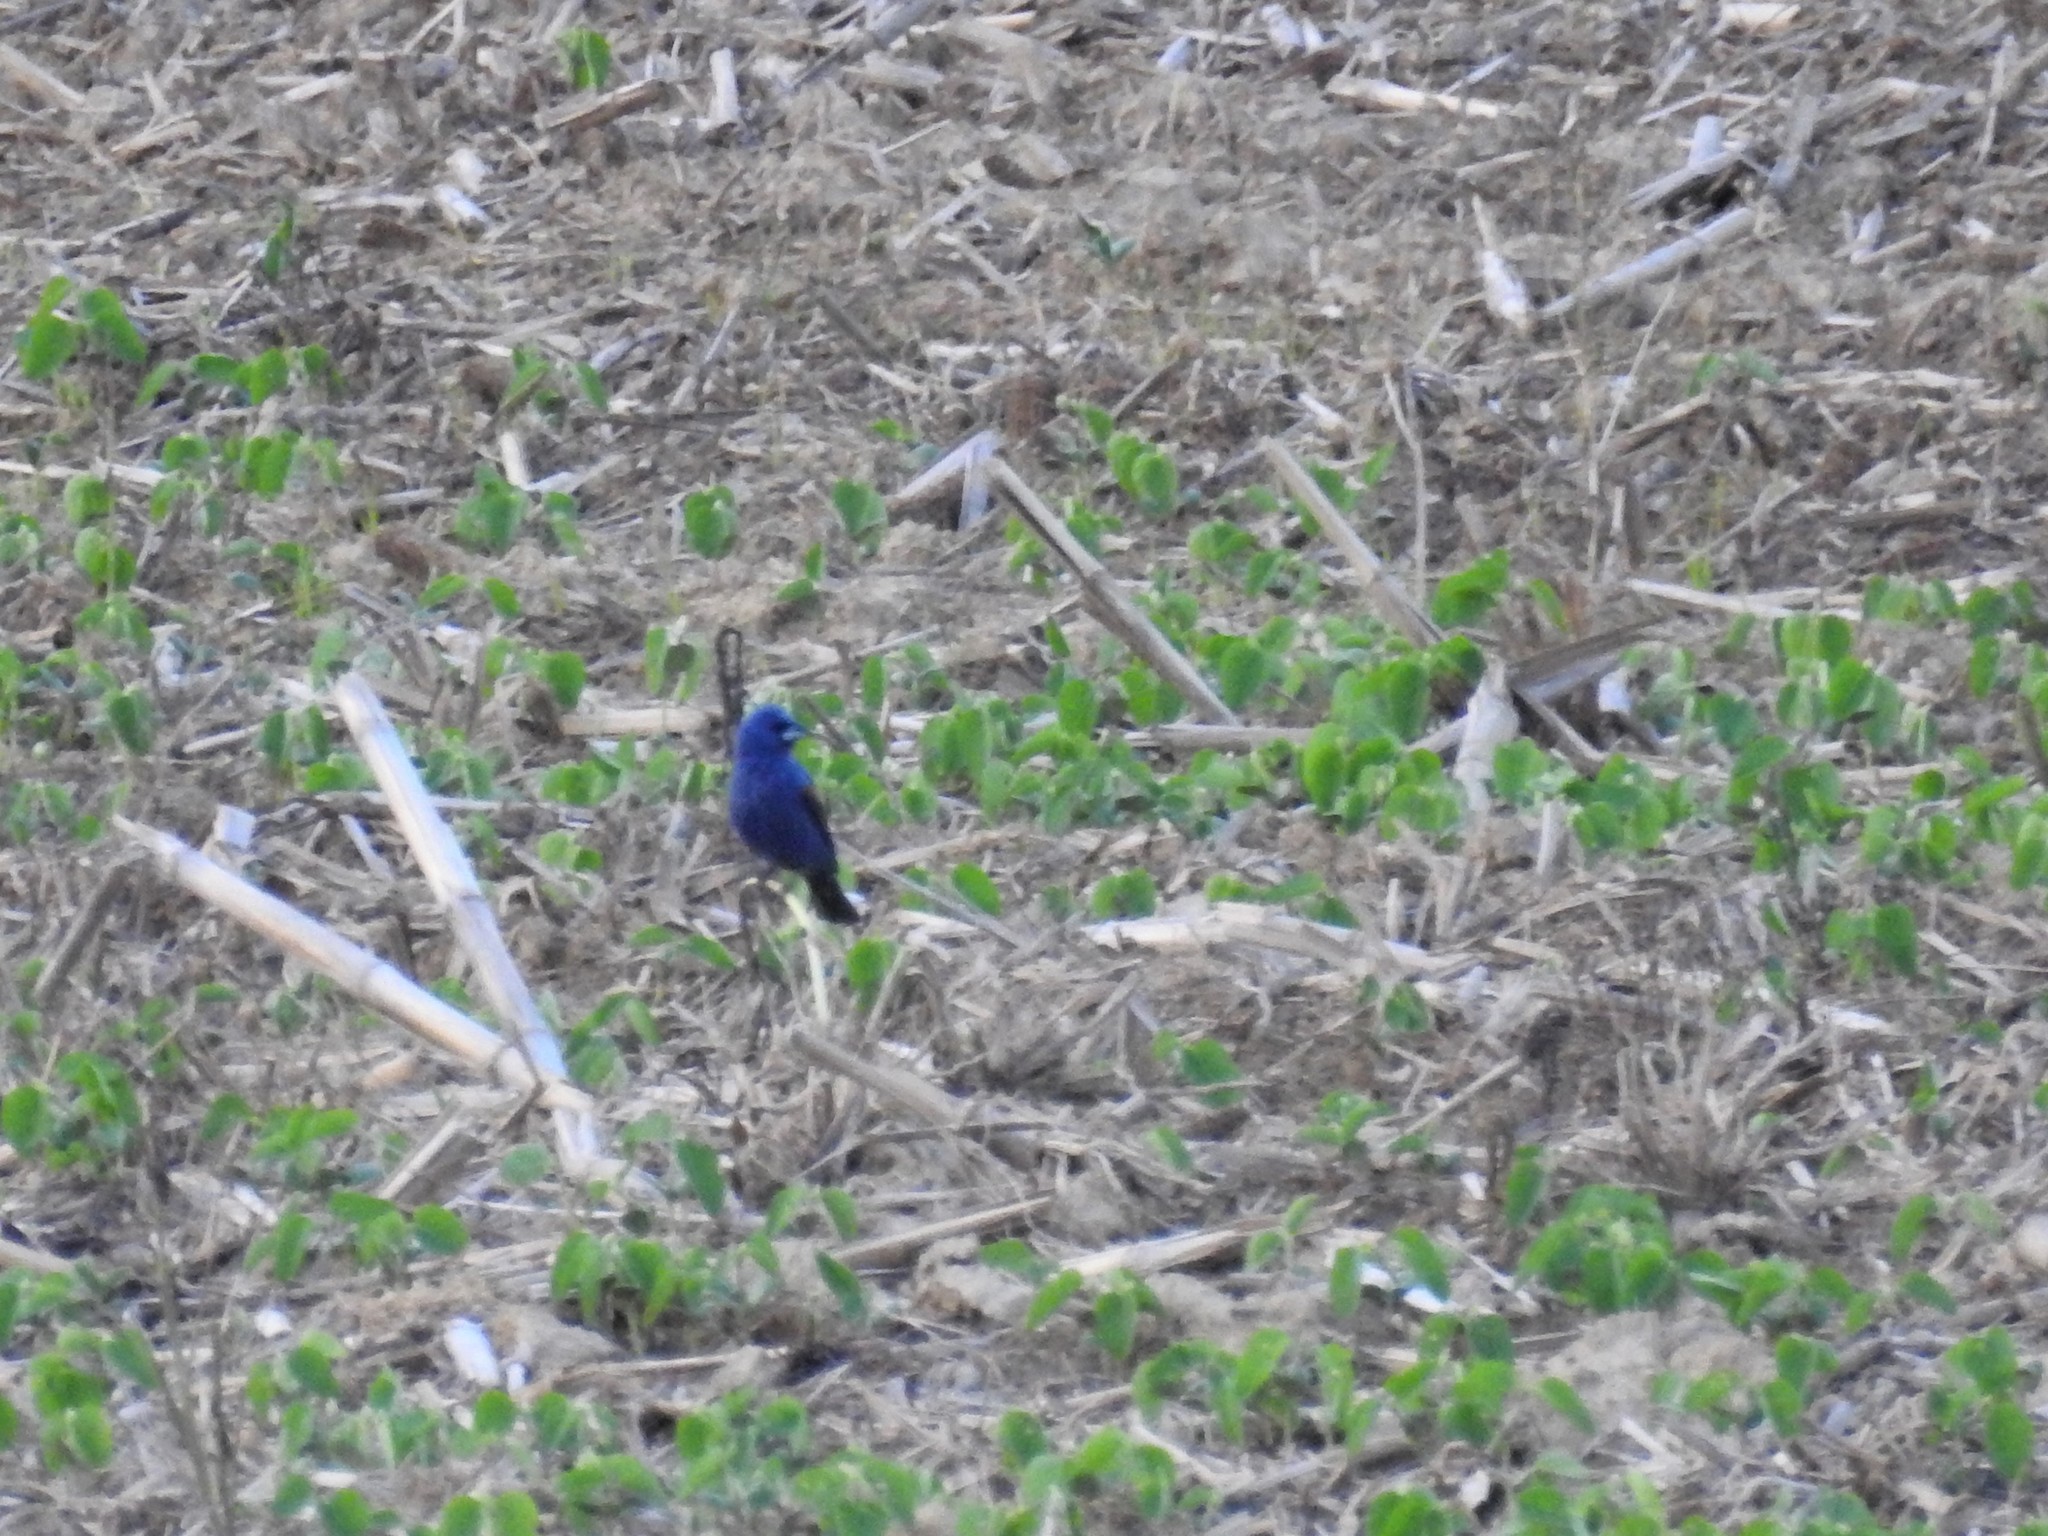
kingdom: Animalia
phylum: Chordata
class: Aves
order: Passeriformes
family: Cardinalidae
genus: Passerina
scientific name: Passerina caerulea
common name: Blue grosbeak
